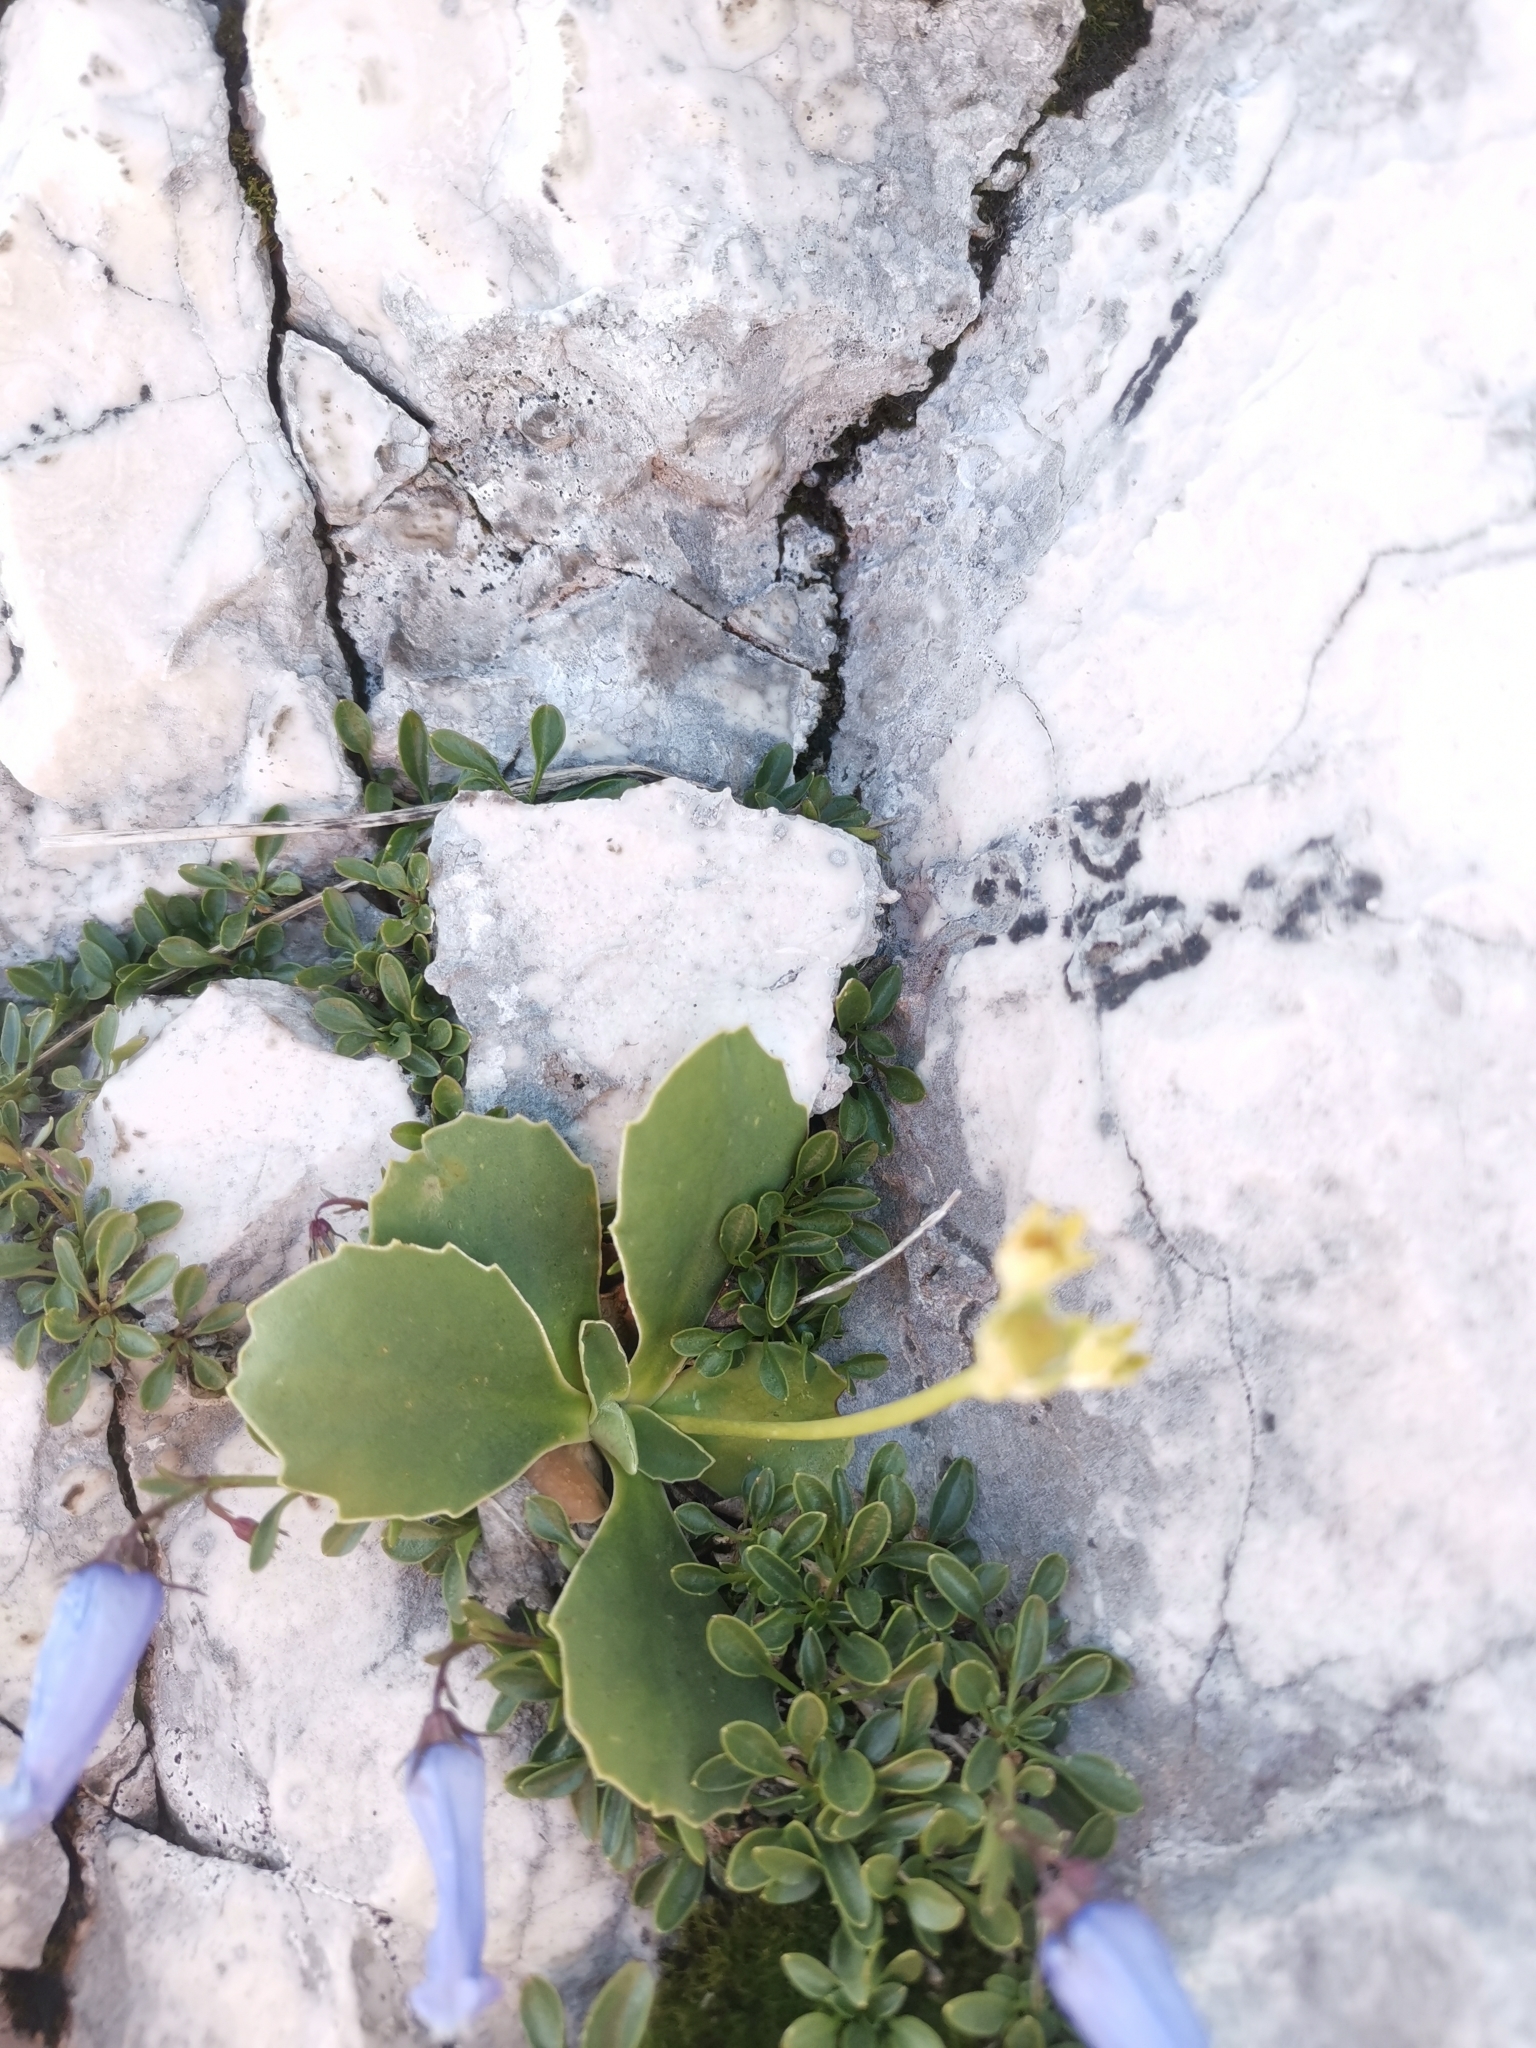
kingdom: Plantae
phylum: Tracheophyta
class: Magnoliopsida
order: Ericales
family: Primulaceae
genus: Primula
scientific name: Primula auricula
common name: Auricula
